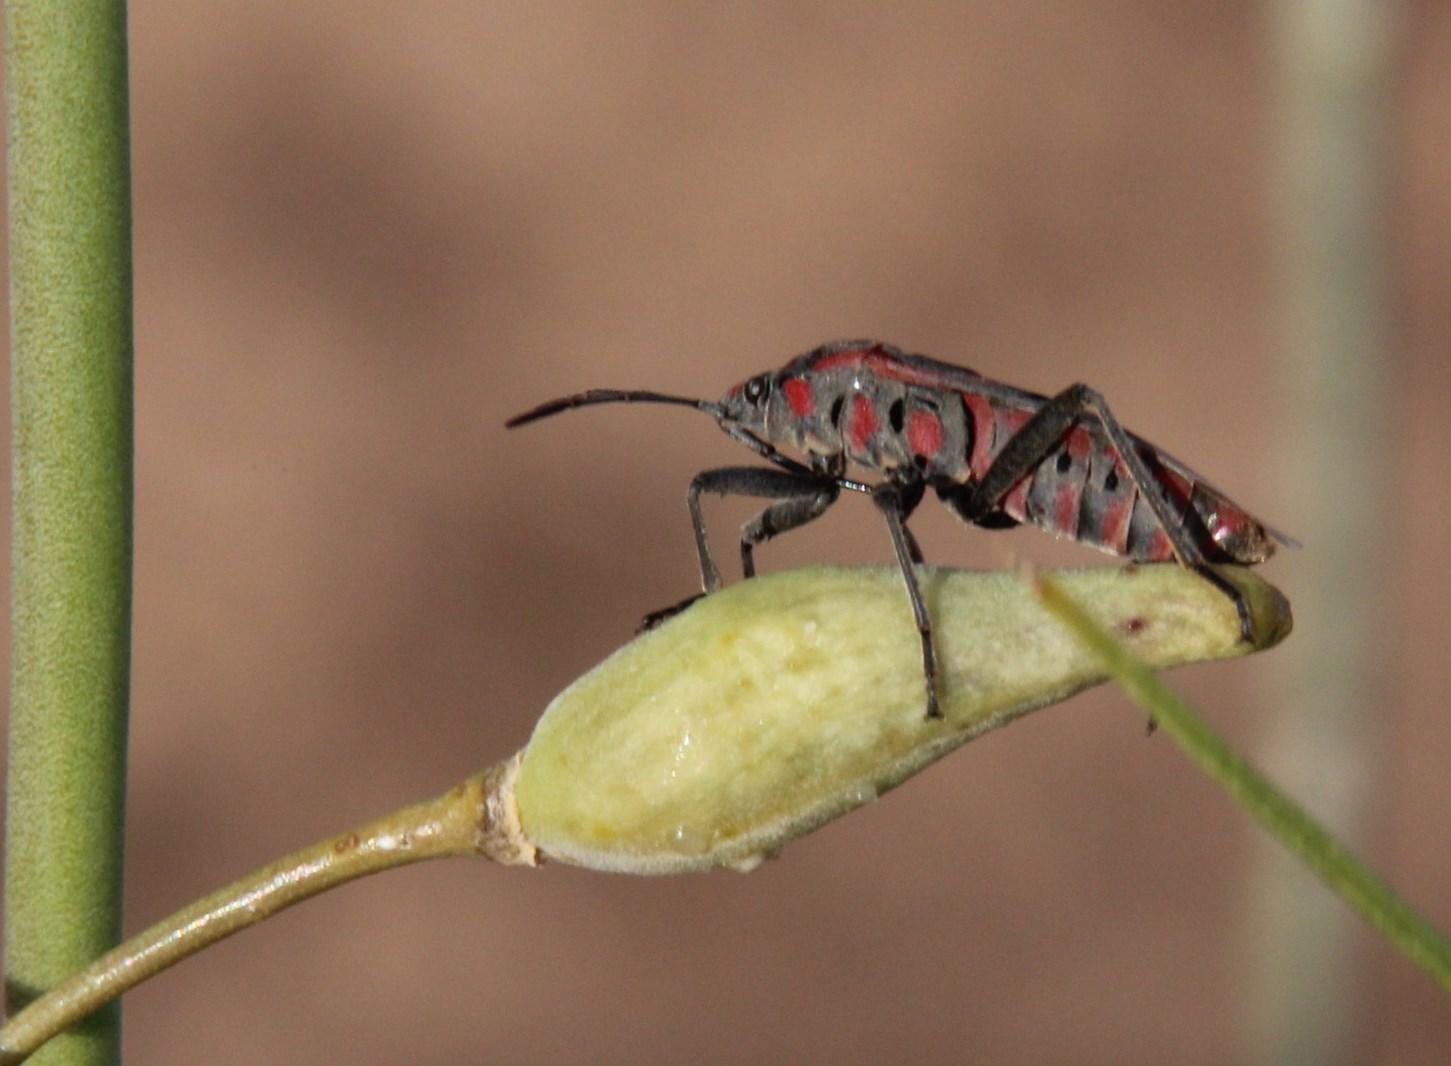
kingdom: Animalia
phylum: Arthropoda
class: Insecta
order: Hemiptera
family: Lygaeidae
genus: Spilostethus
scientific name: Spilostethus pandurus
